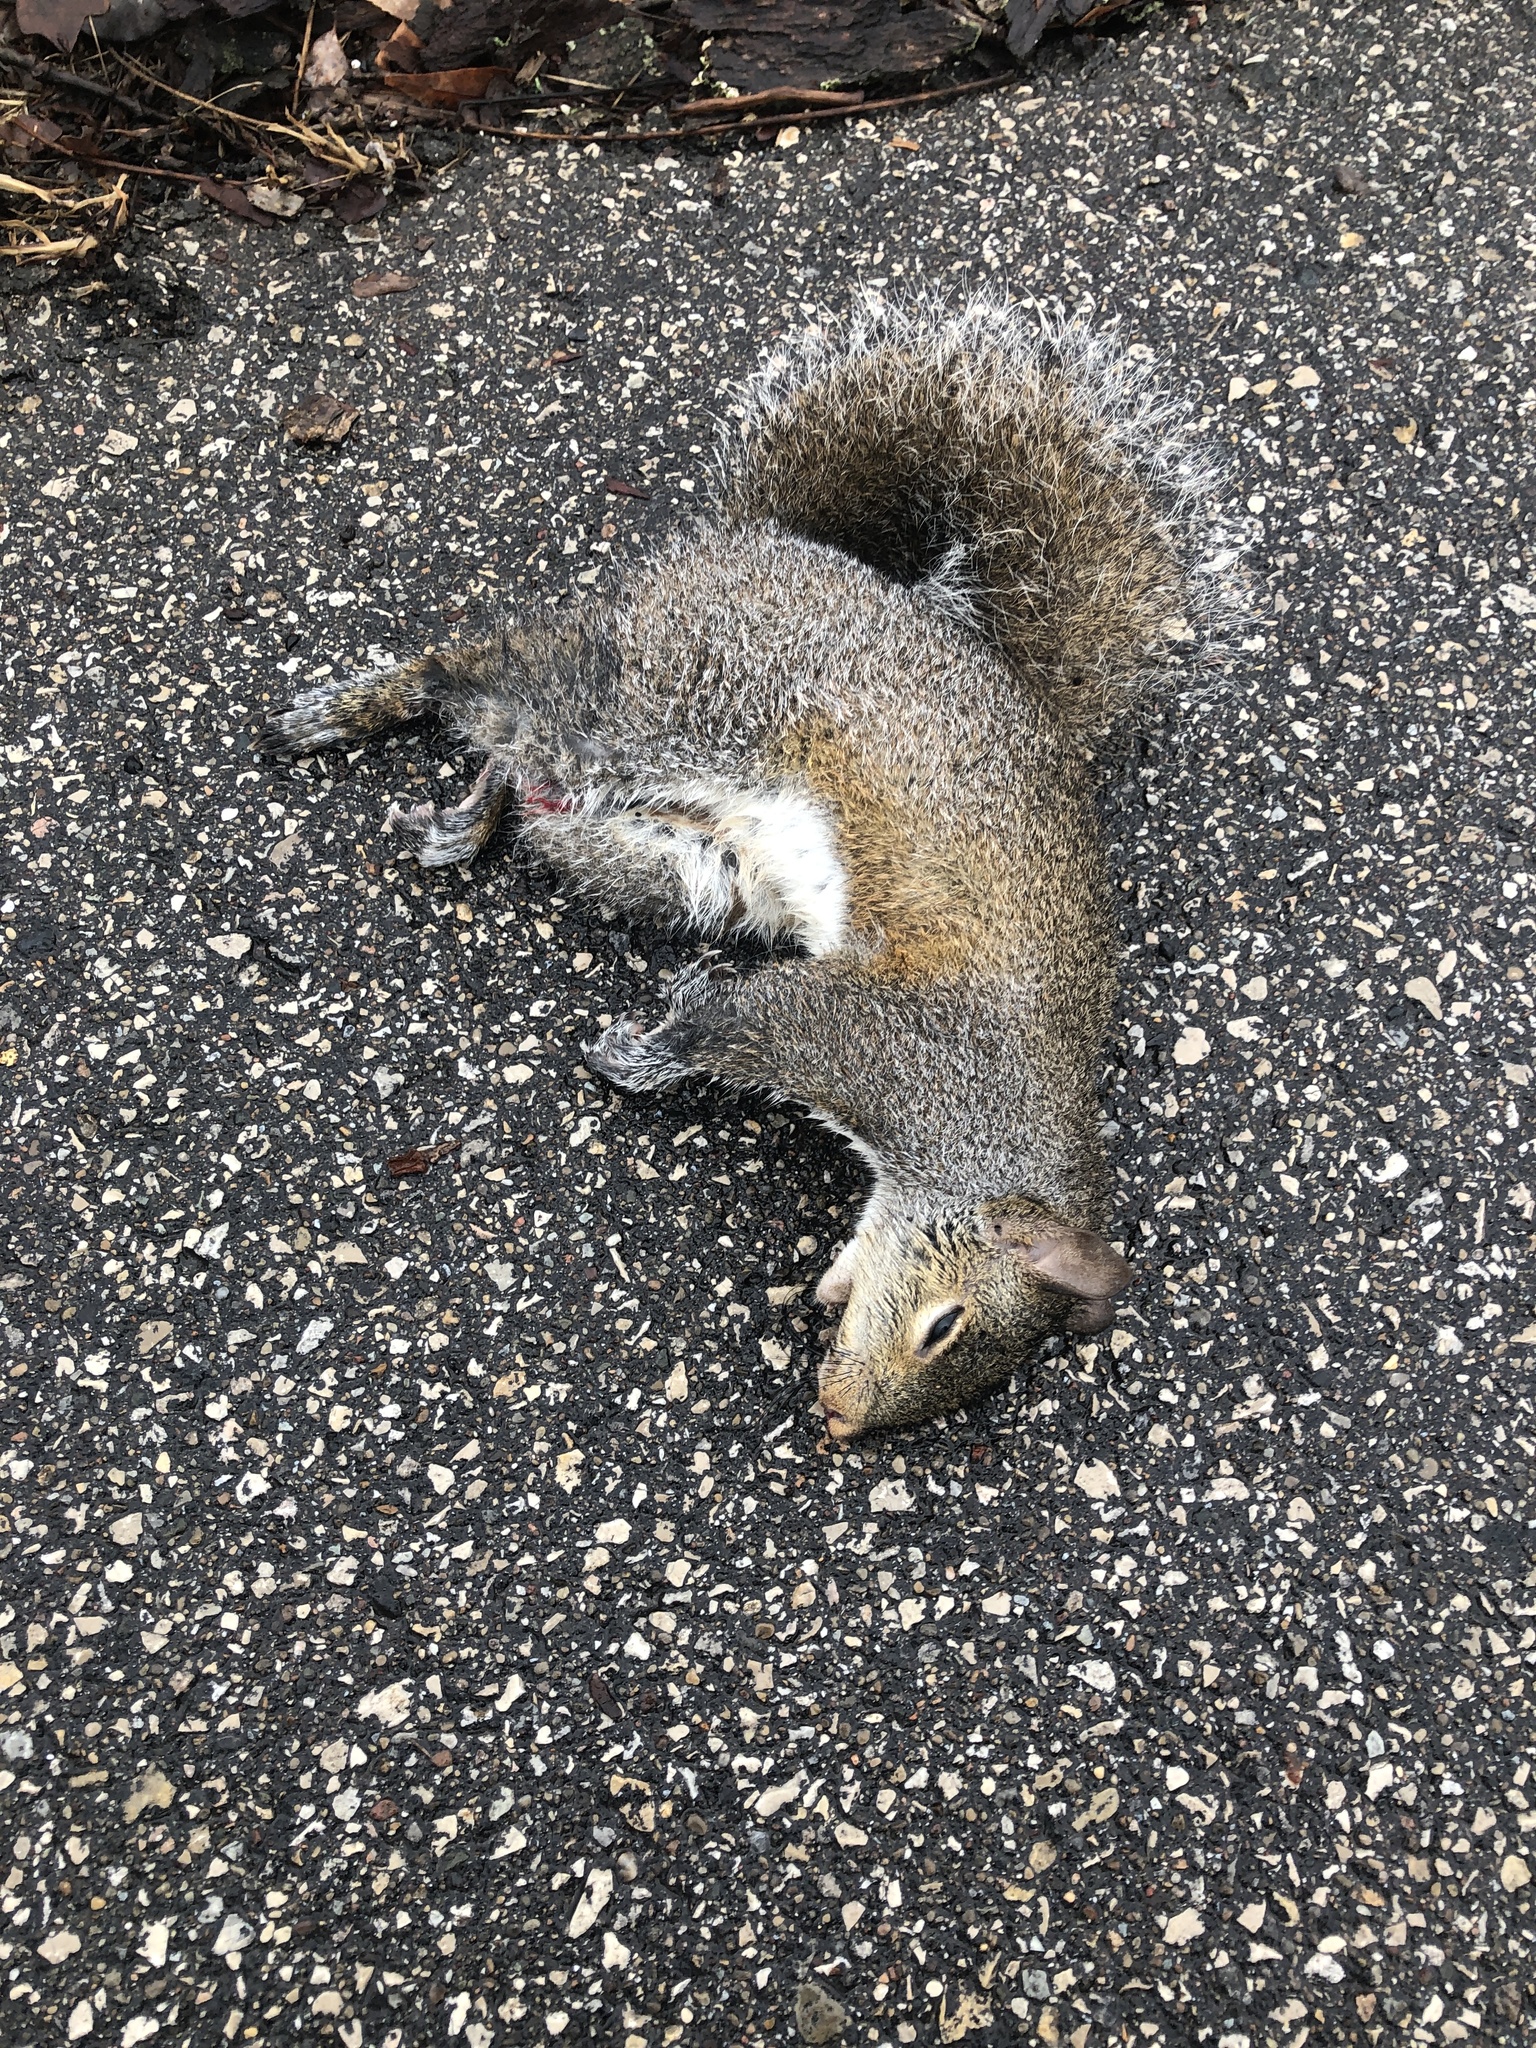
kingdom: Animalia
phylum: Chordata
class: Mammalia
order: Rodentia
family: Sciuridae
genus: Sciurus
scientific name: Sciurus carolinensis
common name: Eastern gray squirrel
